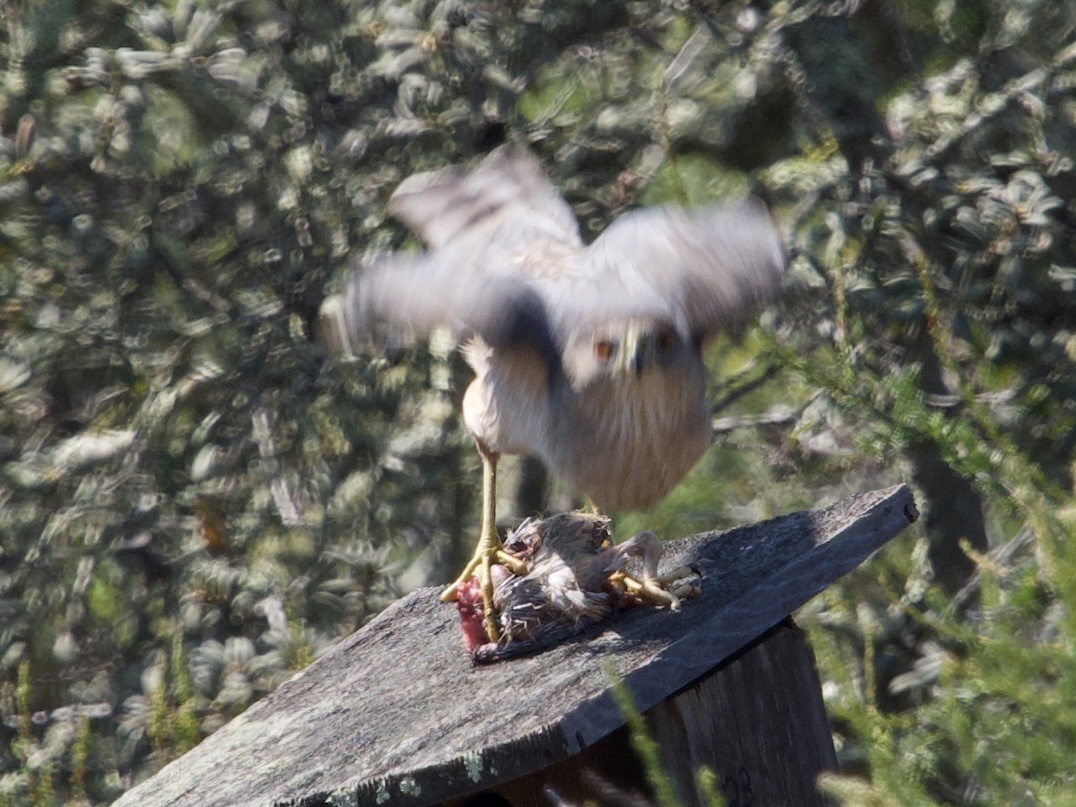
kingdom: Animalia
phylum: Chordata
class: Aves
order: Accipitriformes
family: Accipitridae
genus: Accipiter
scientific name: Accipiter cooperii
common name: Cooper's hawk
